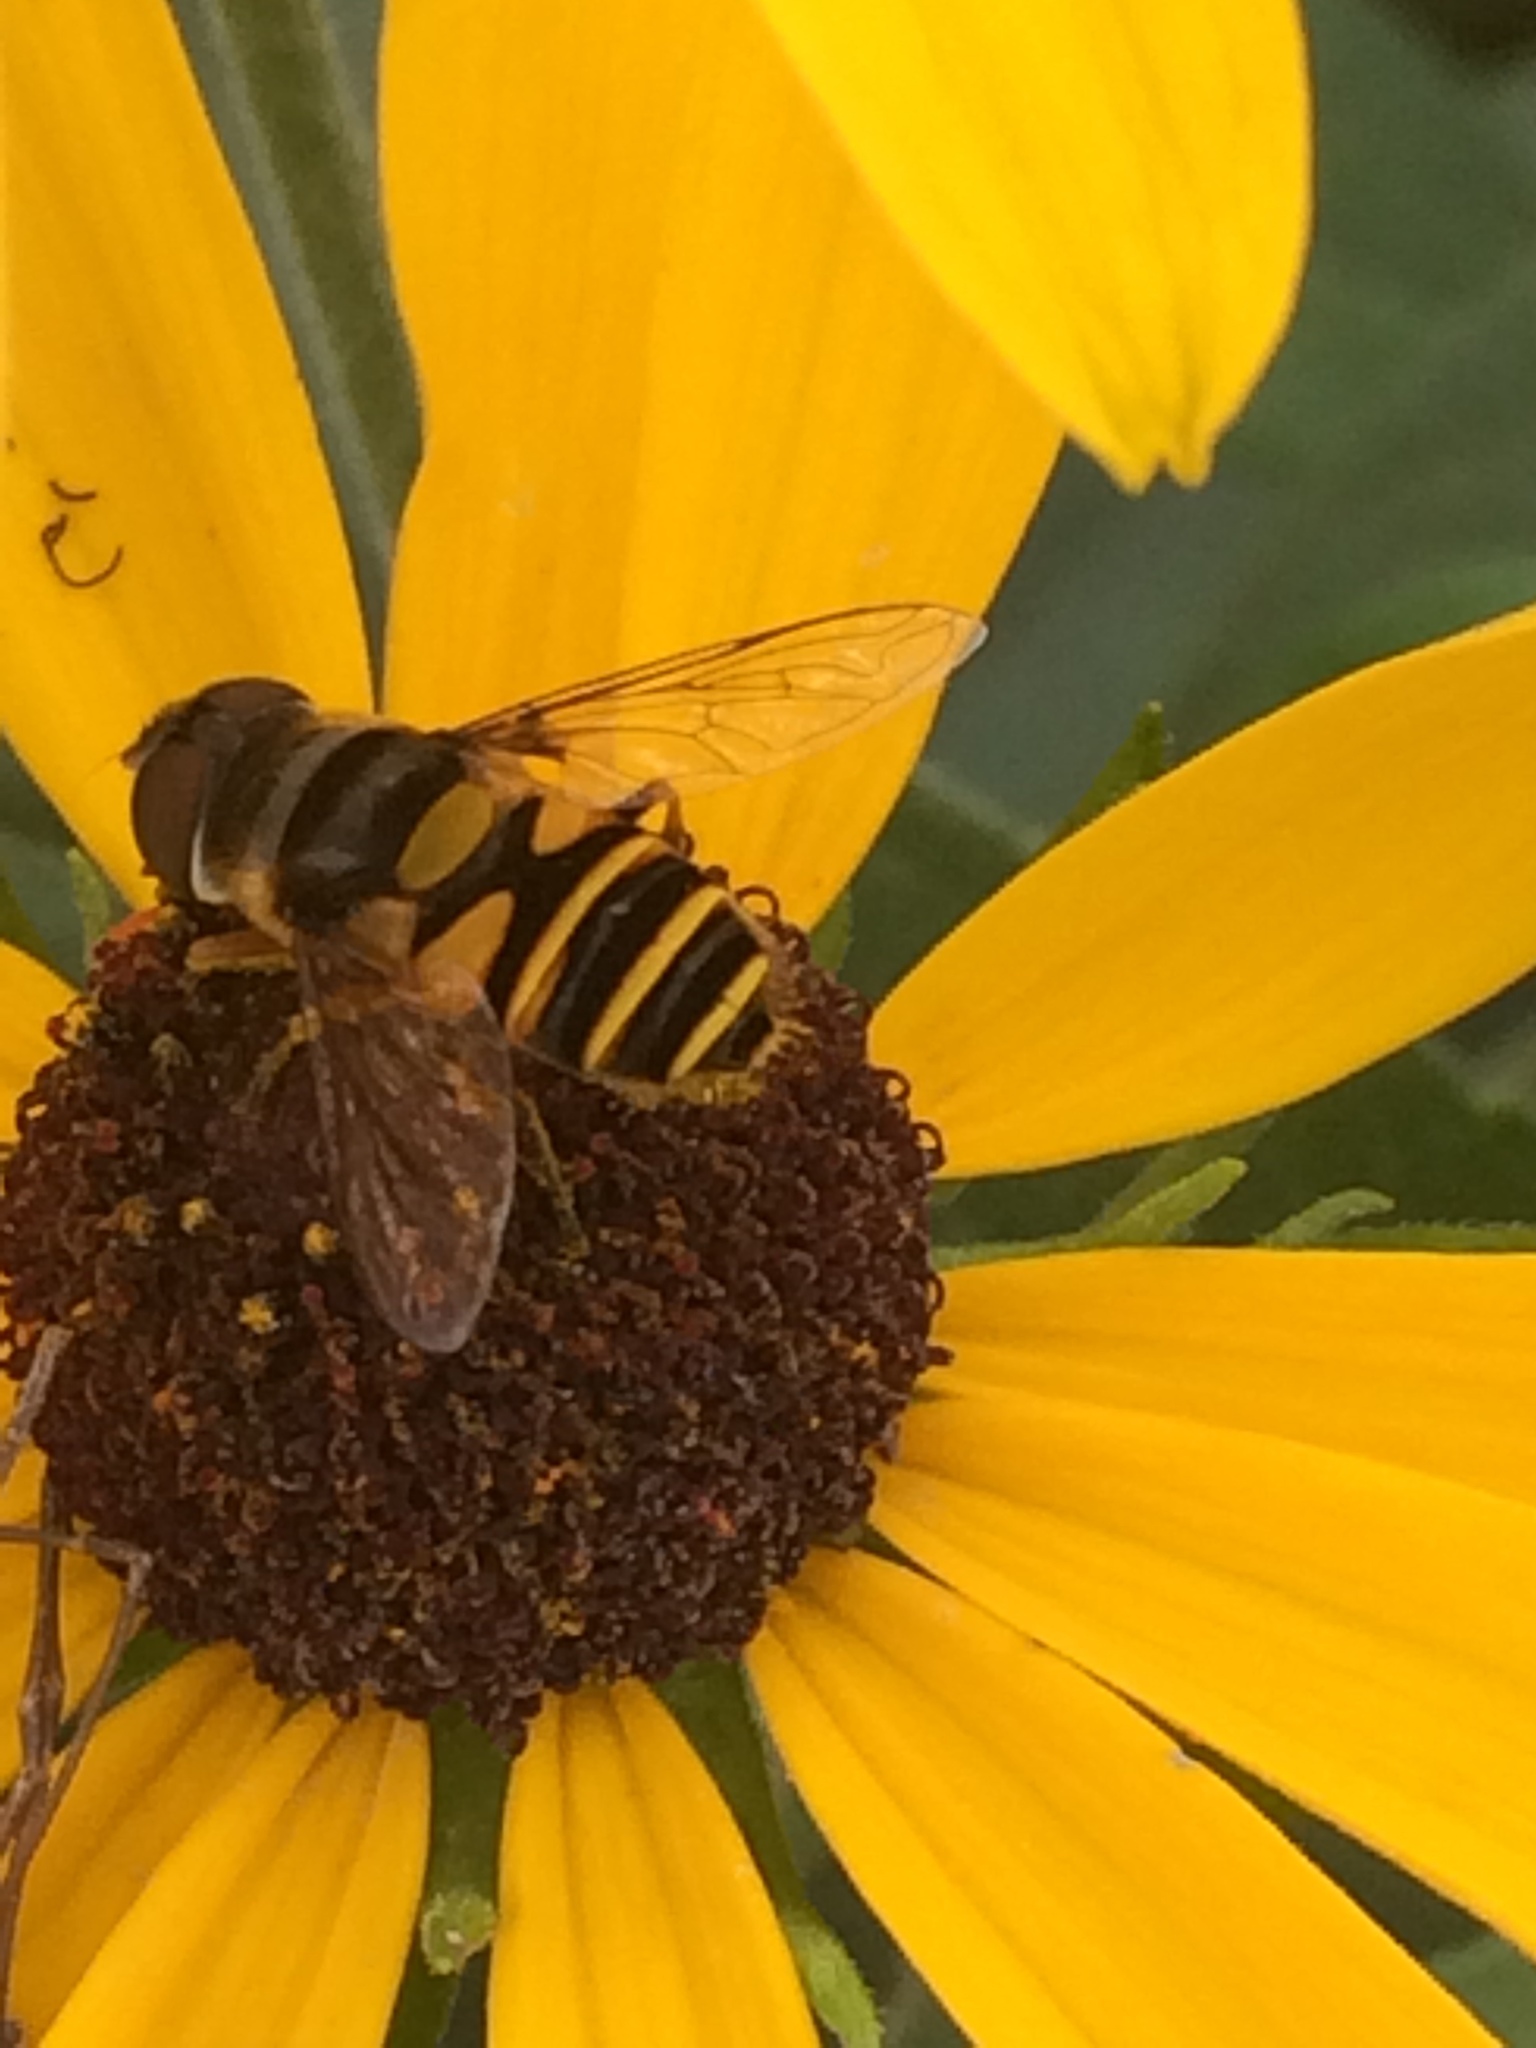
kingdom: Animalia
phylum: Arthropoda
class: Insecta
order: Diptera
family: Syrphidae
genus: Eristalis
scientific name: Eristalis transversa
